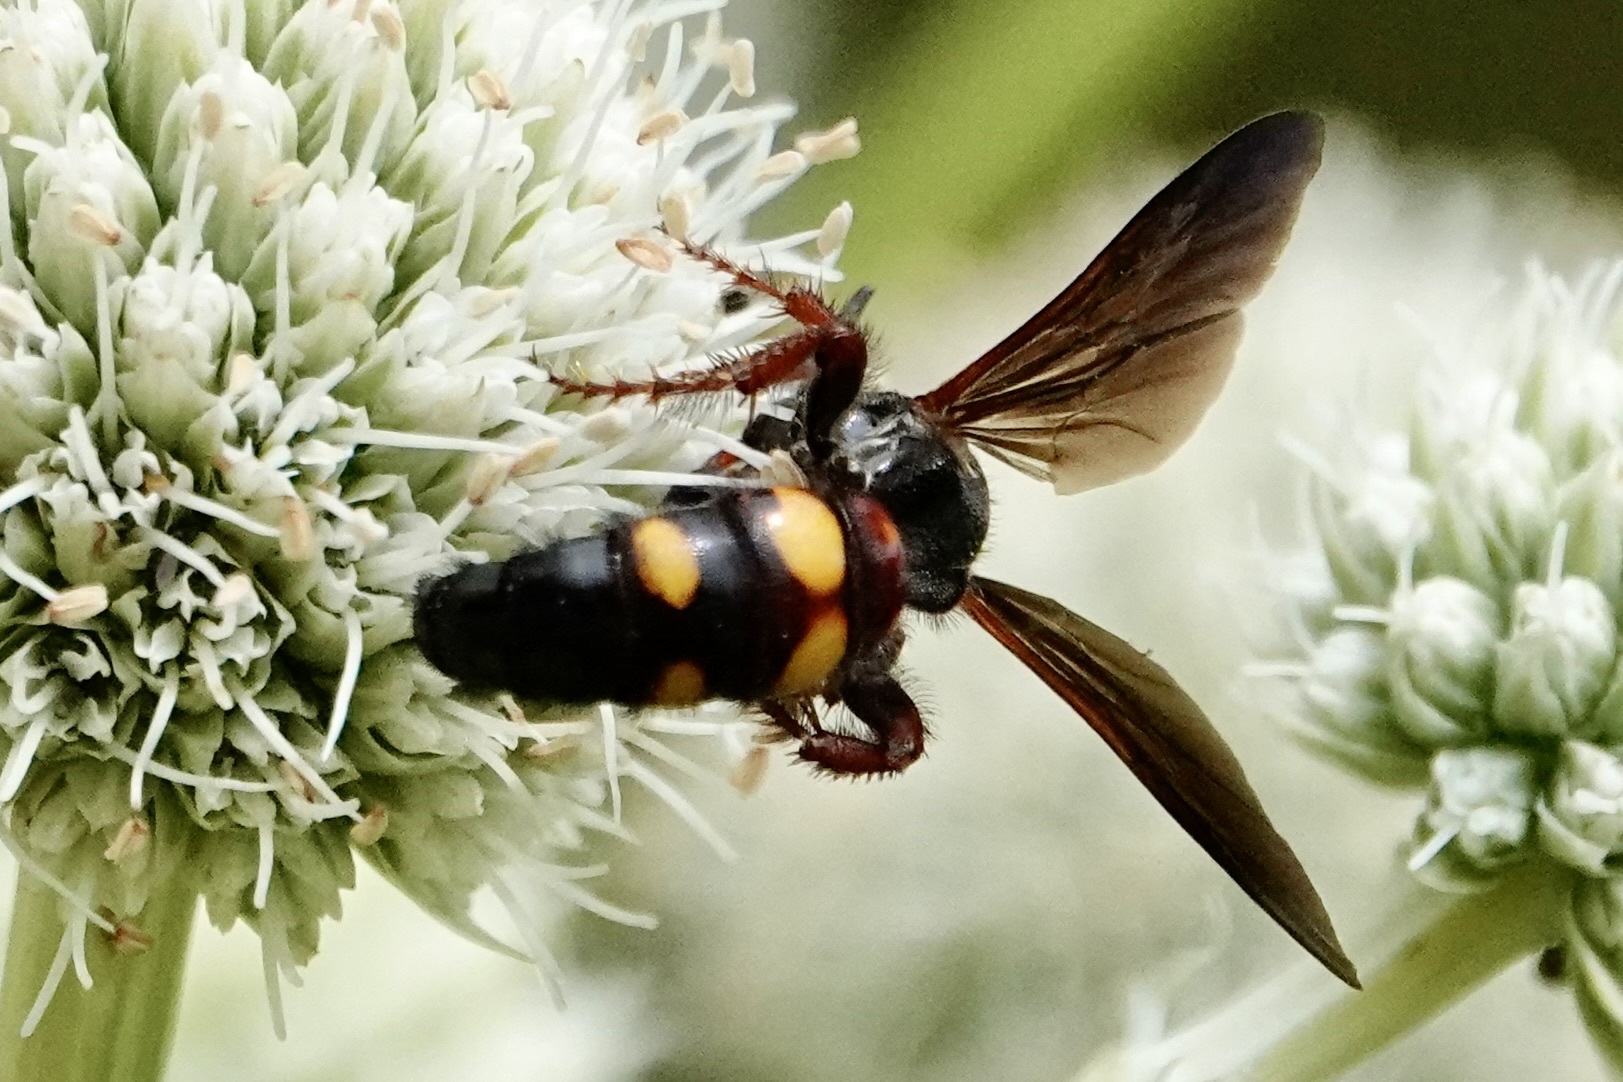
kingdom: Animalia
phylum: Arthropoda
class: Insecta
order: Hymenoptera
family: Scoliidae
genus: Scolia
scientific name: Scolia nobilitata
